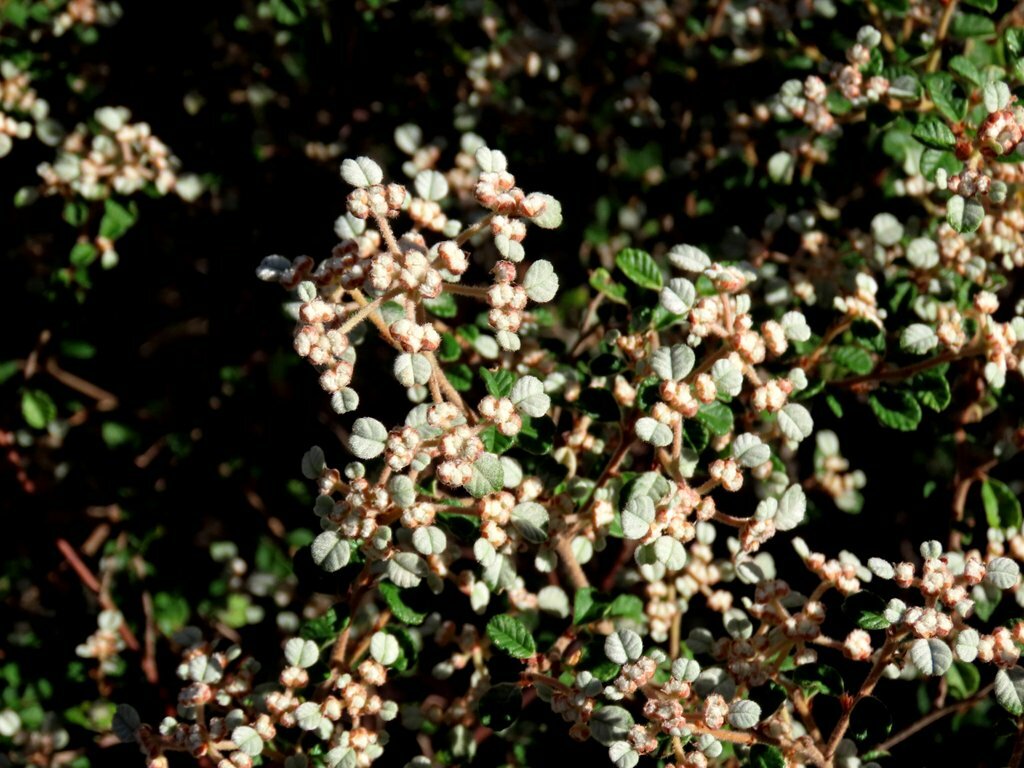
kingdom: Plantae
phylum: Tracheophyta
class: Magnoliopsida
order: Rosales
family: Rhamnaceae
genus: Spyridium
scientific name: Spyridium parvifolium
